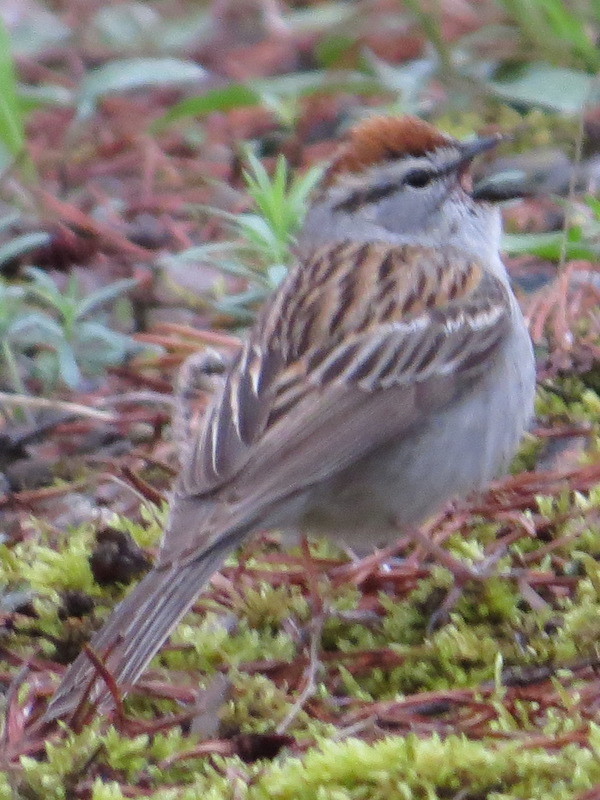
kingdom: Animalia
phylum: Chordata
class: Aves
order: Passeriformes
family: Passerellidae
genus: Spizella
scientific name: Spizella passerina
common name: Chipping sparrow
